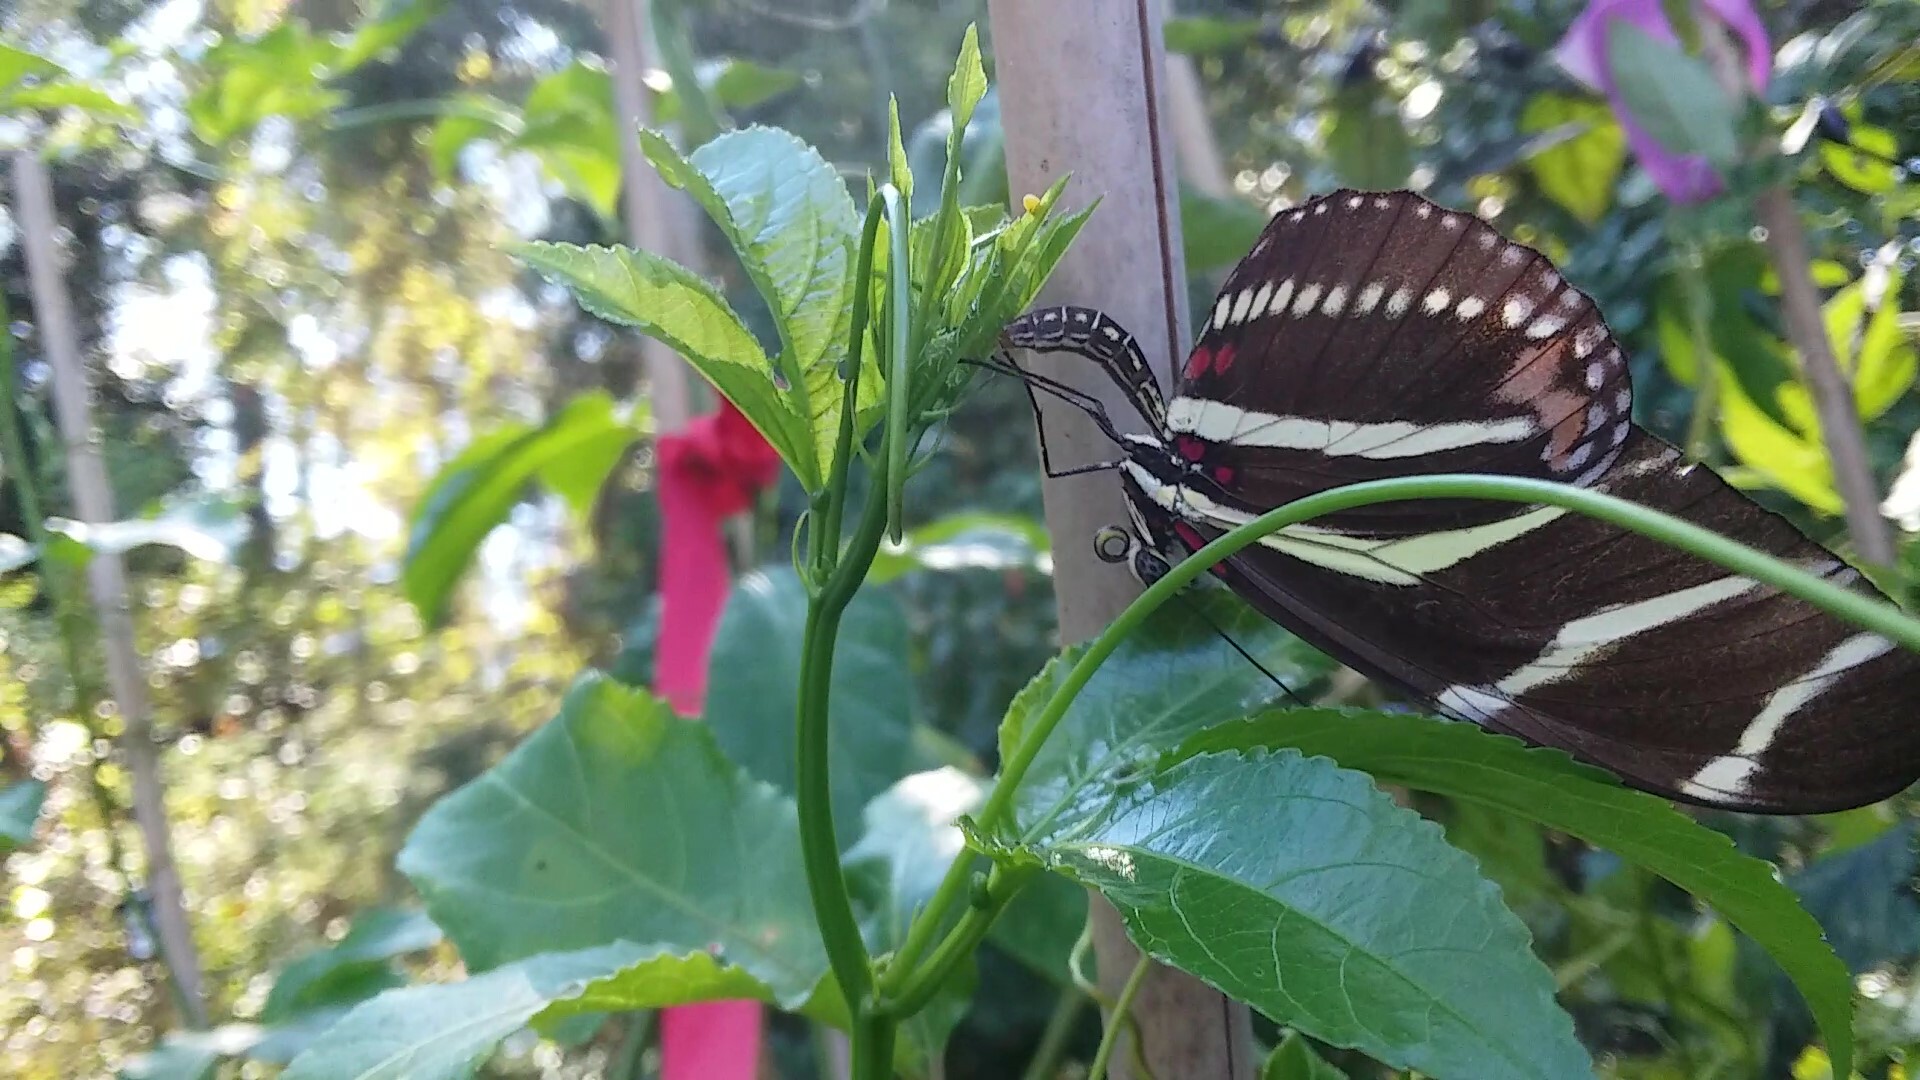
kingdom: Animalia
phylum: Arthropoda
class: Insecta
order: Lepidoptera
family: Nymphalidae
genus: Heliconius
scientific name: Heliconius charithonia
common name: Zebra long wing
